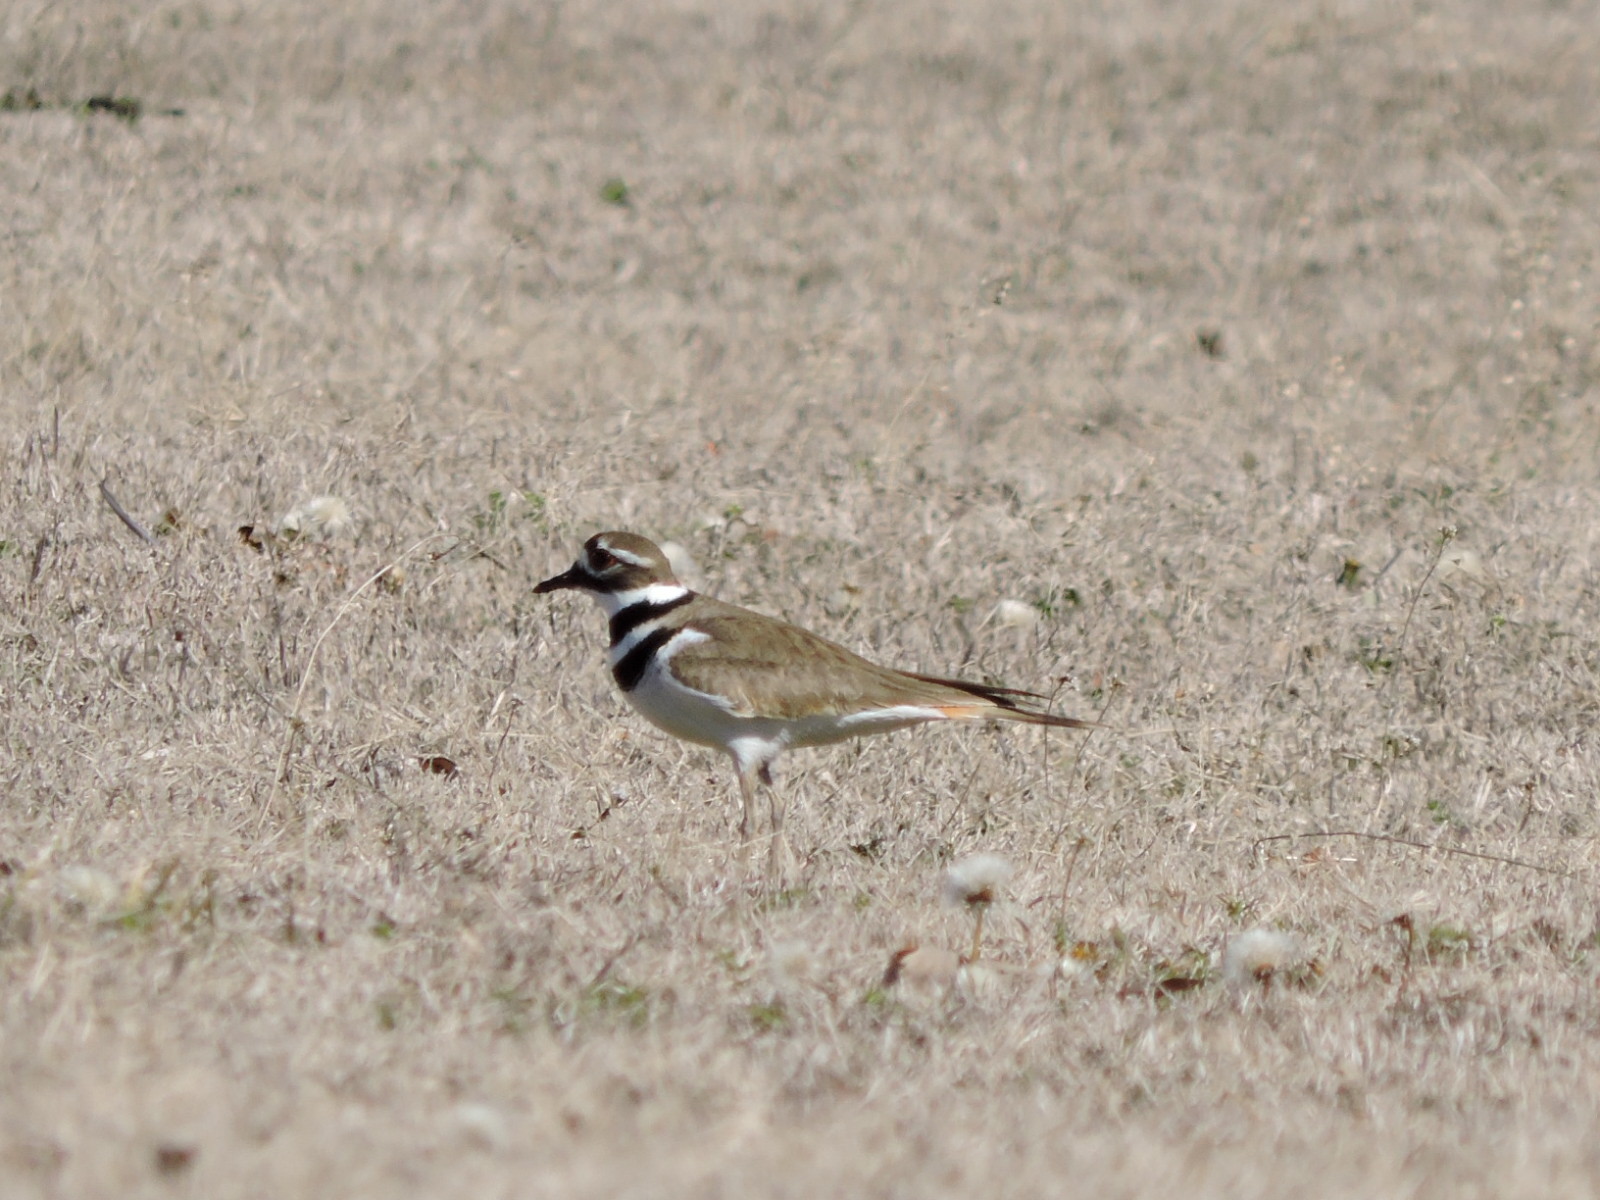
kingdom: Animalia
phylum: Chordata
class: Aves
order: Charadriiformes
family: Charadriidae
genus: Charadrius
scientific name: Charadrius vociferus
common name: Killdeer
